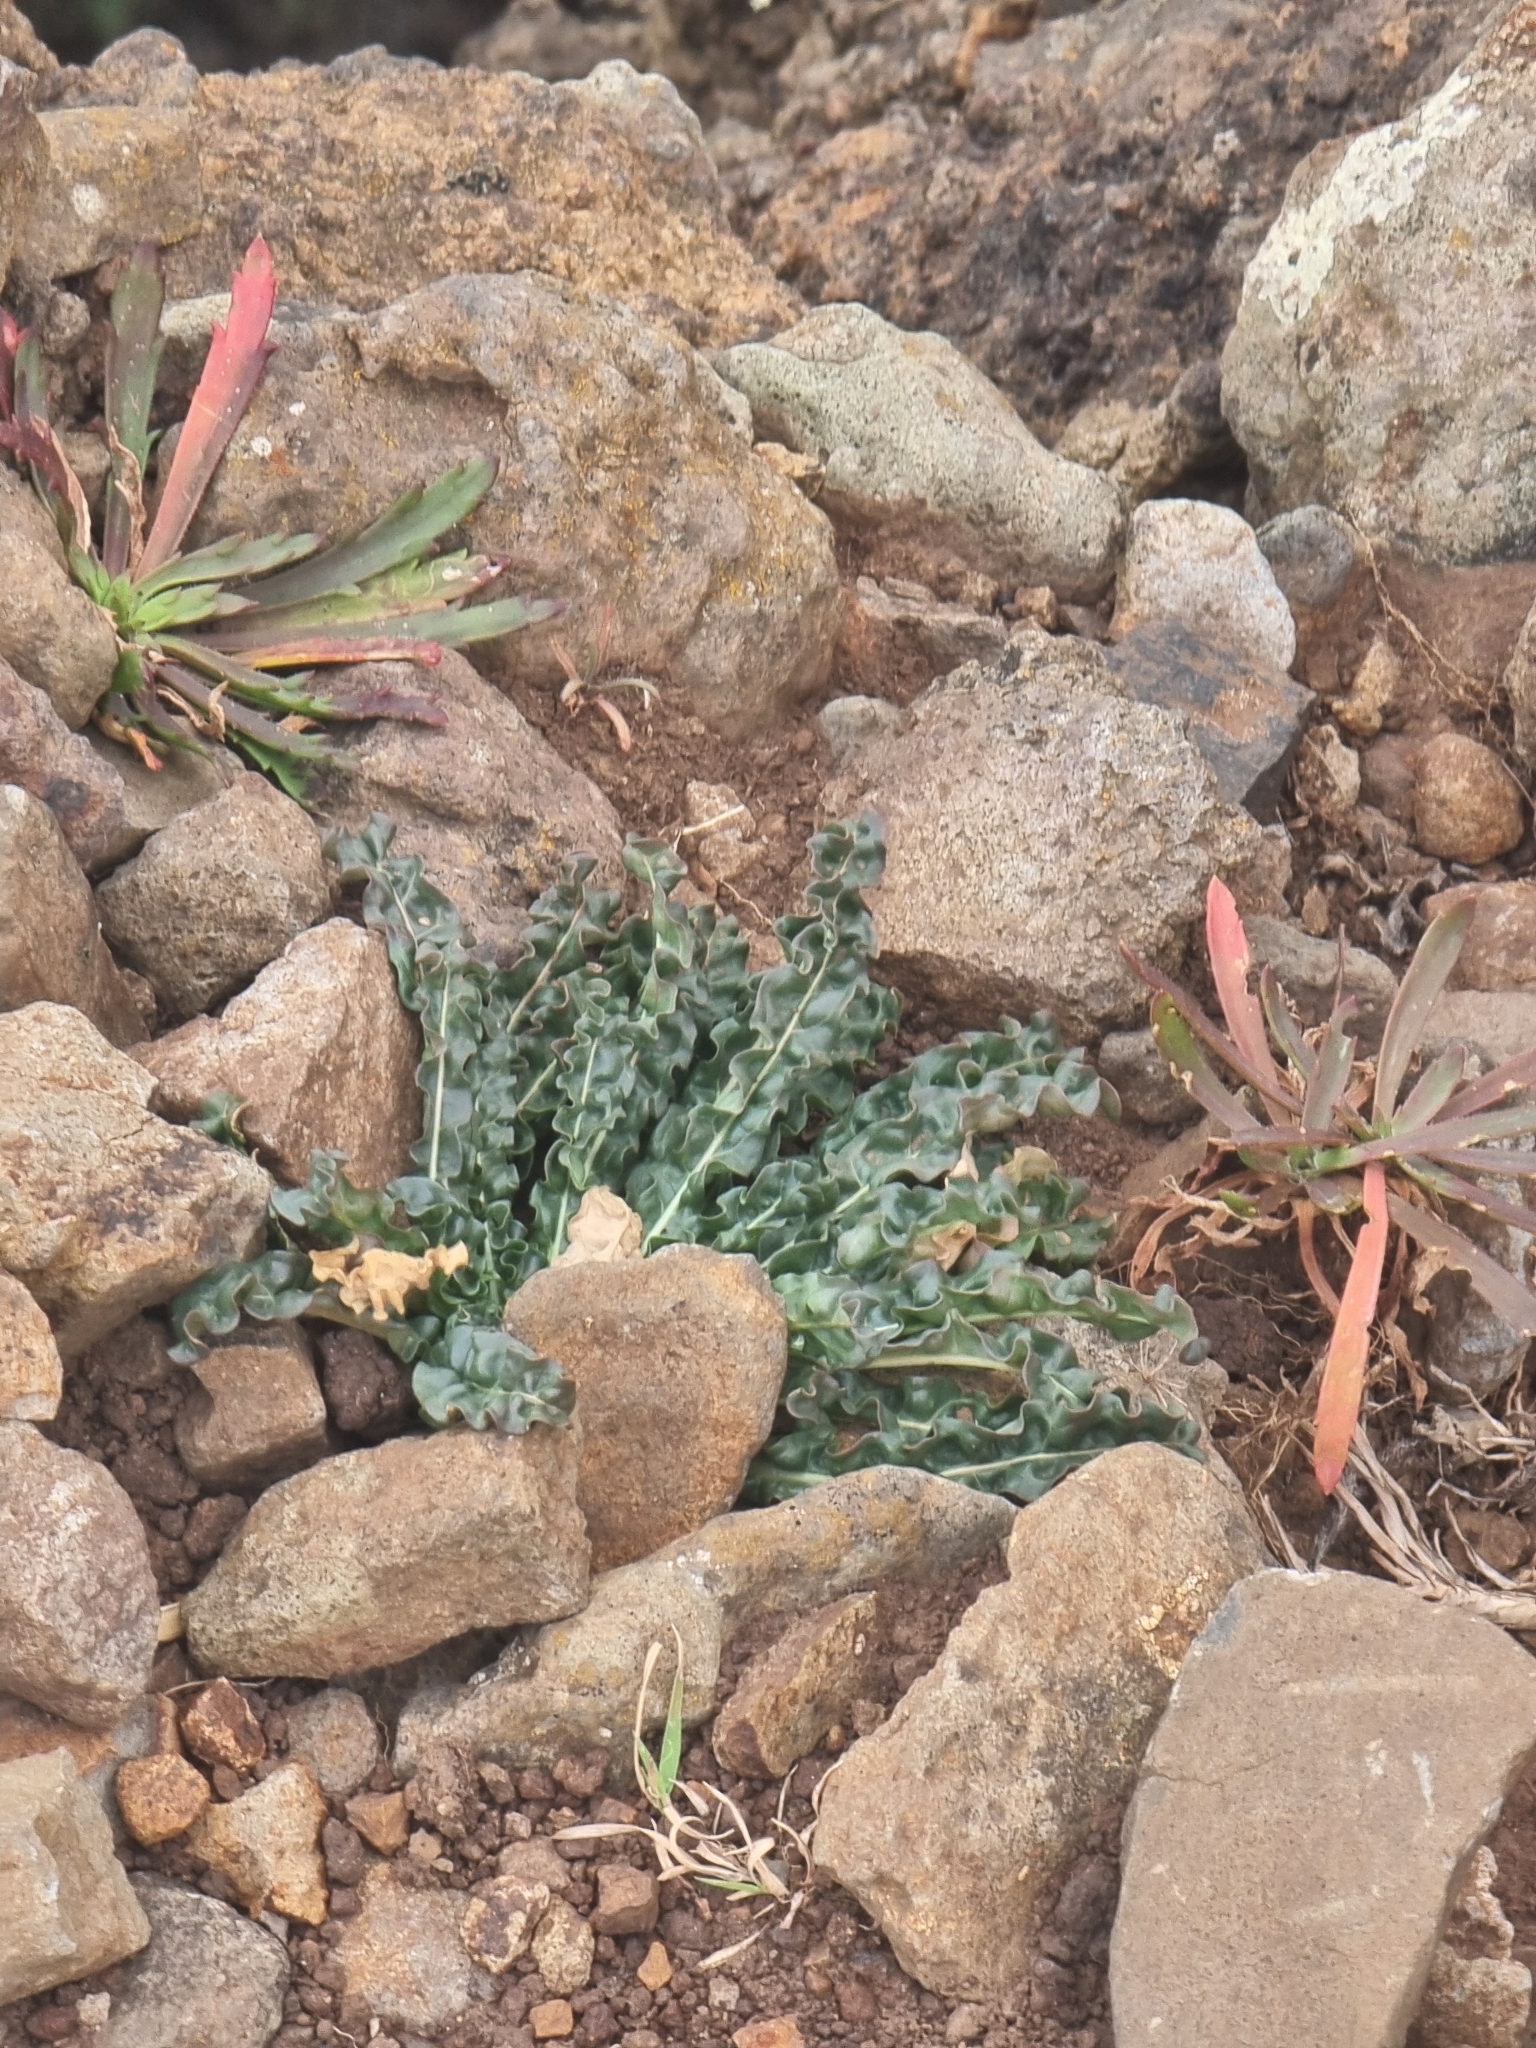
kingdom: Plantae
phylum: Tracheophyta
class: Magnoliopsida
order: Brassicales
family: Resedaceae
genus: Reseda
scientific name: Reseda luteola
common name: Weld
